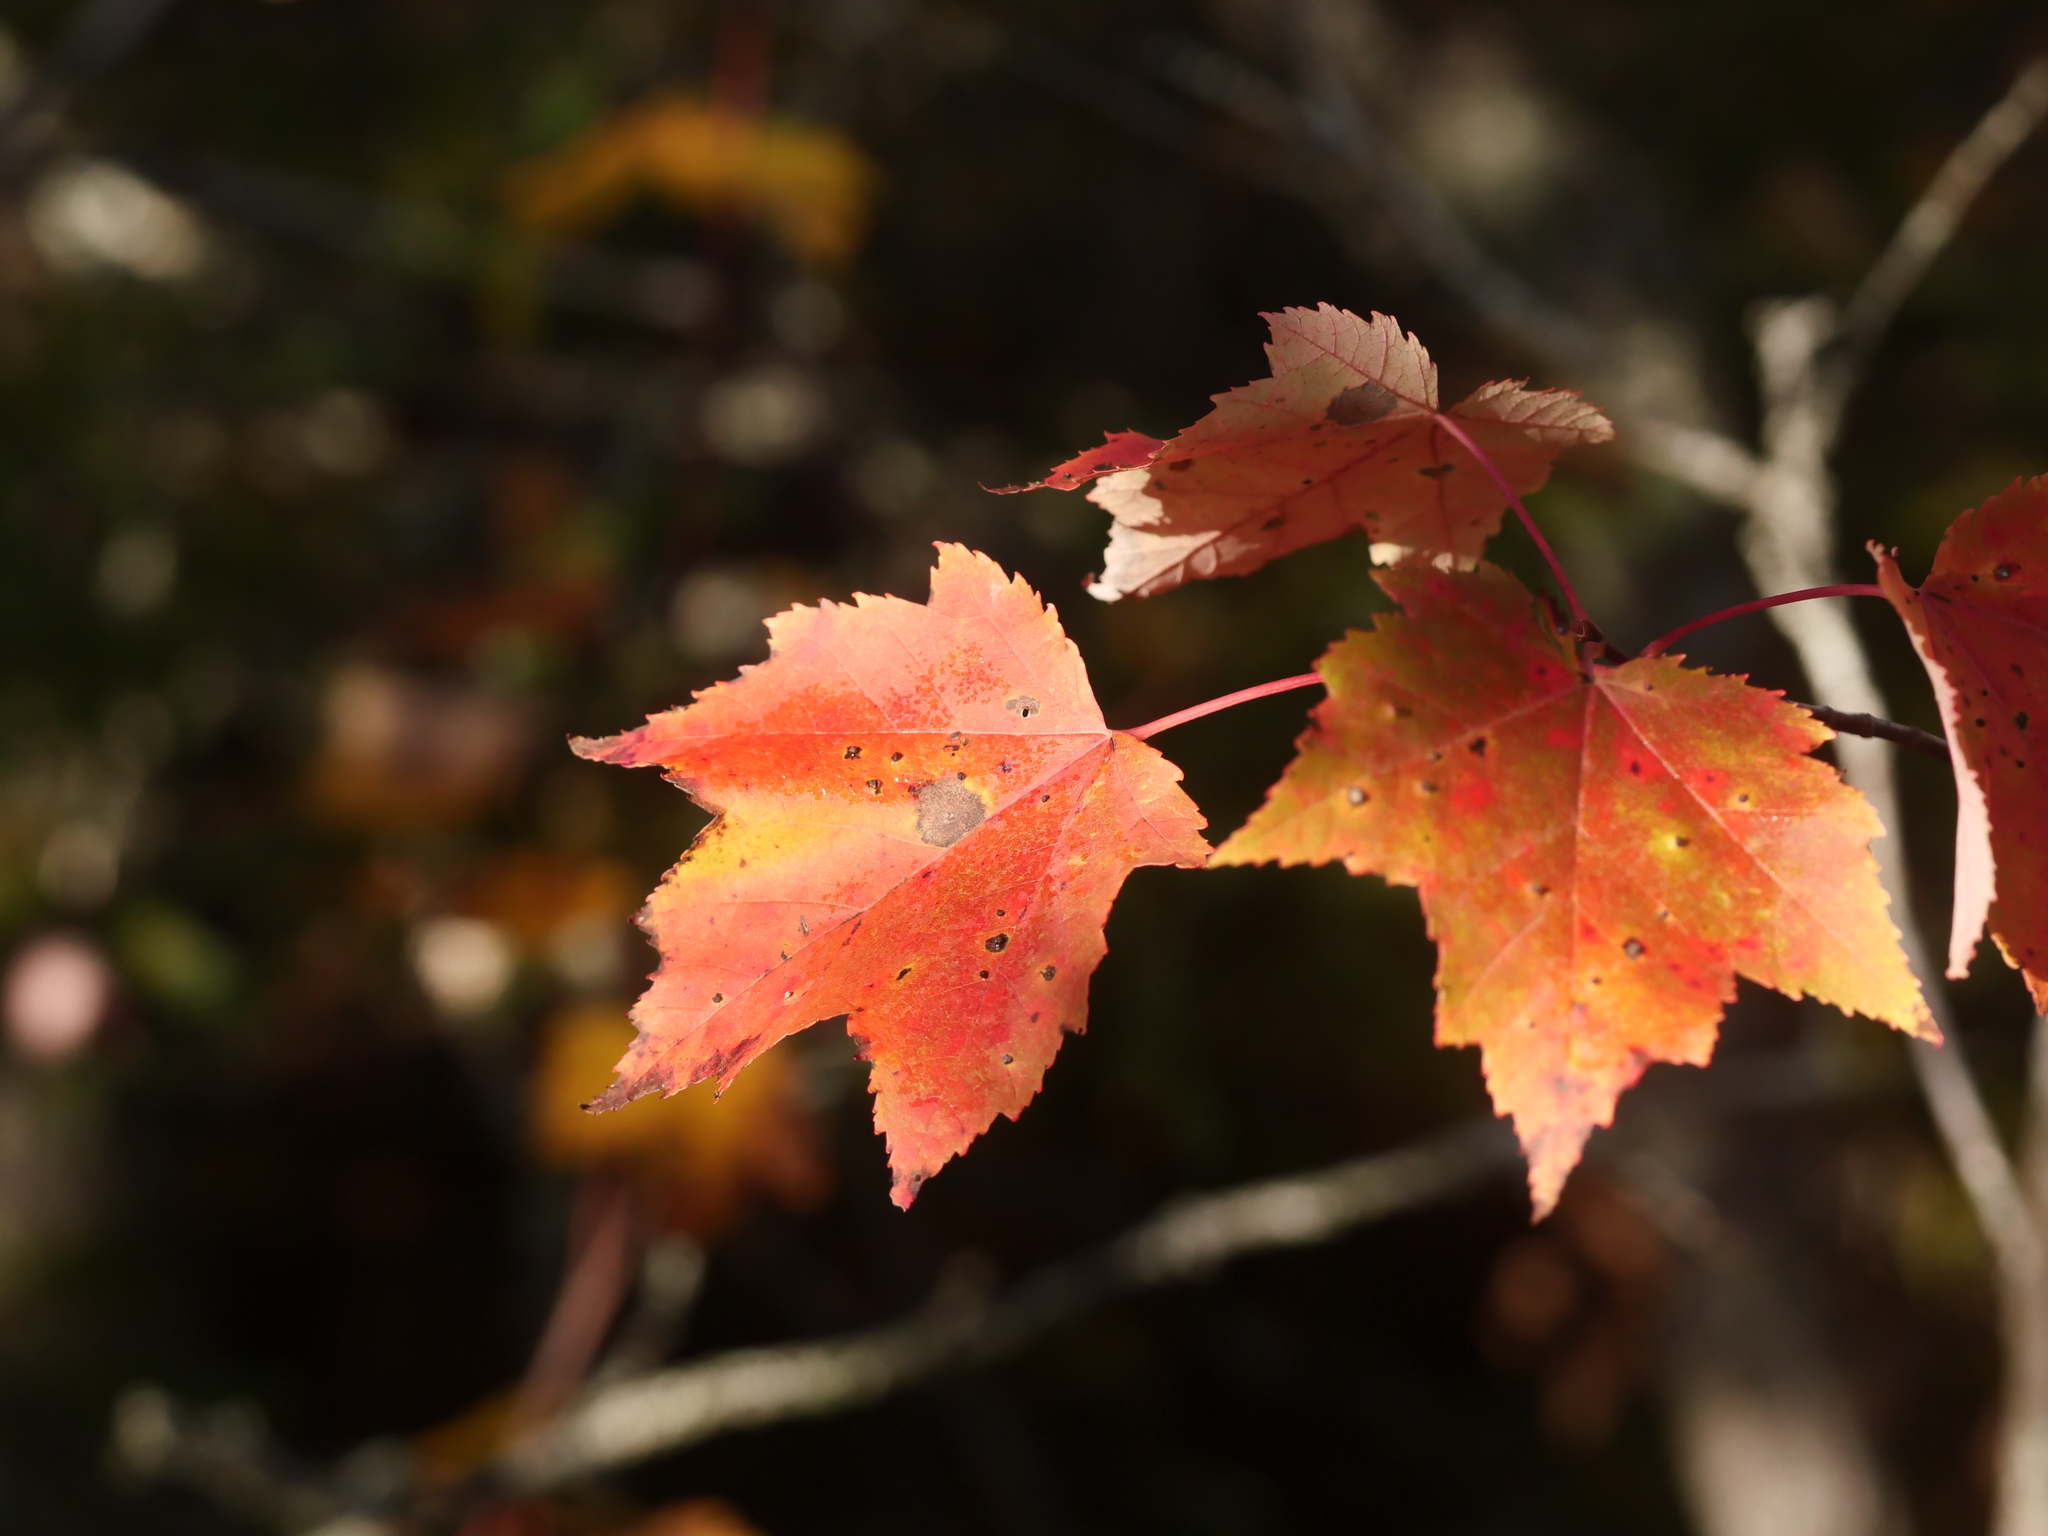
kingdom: Plantae
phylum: Tracheophyta
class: Magnoliopsida
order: Sapindales
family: Sapindaceae
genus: Acer
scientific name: Acer rubrum
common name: Red maple
